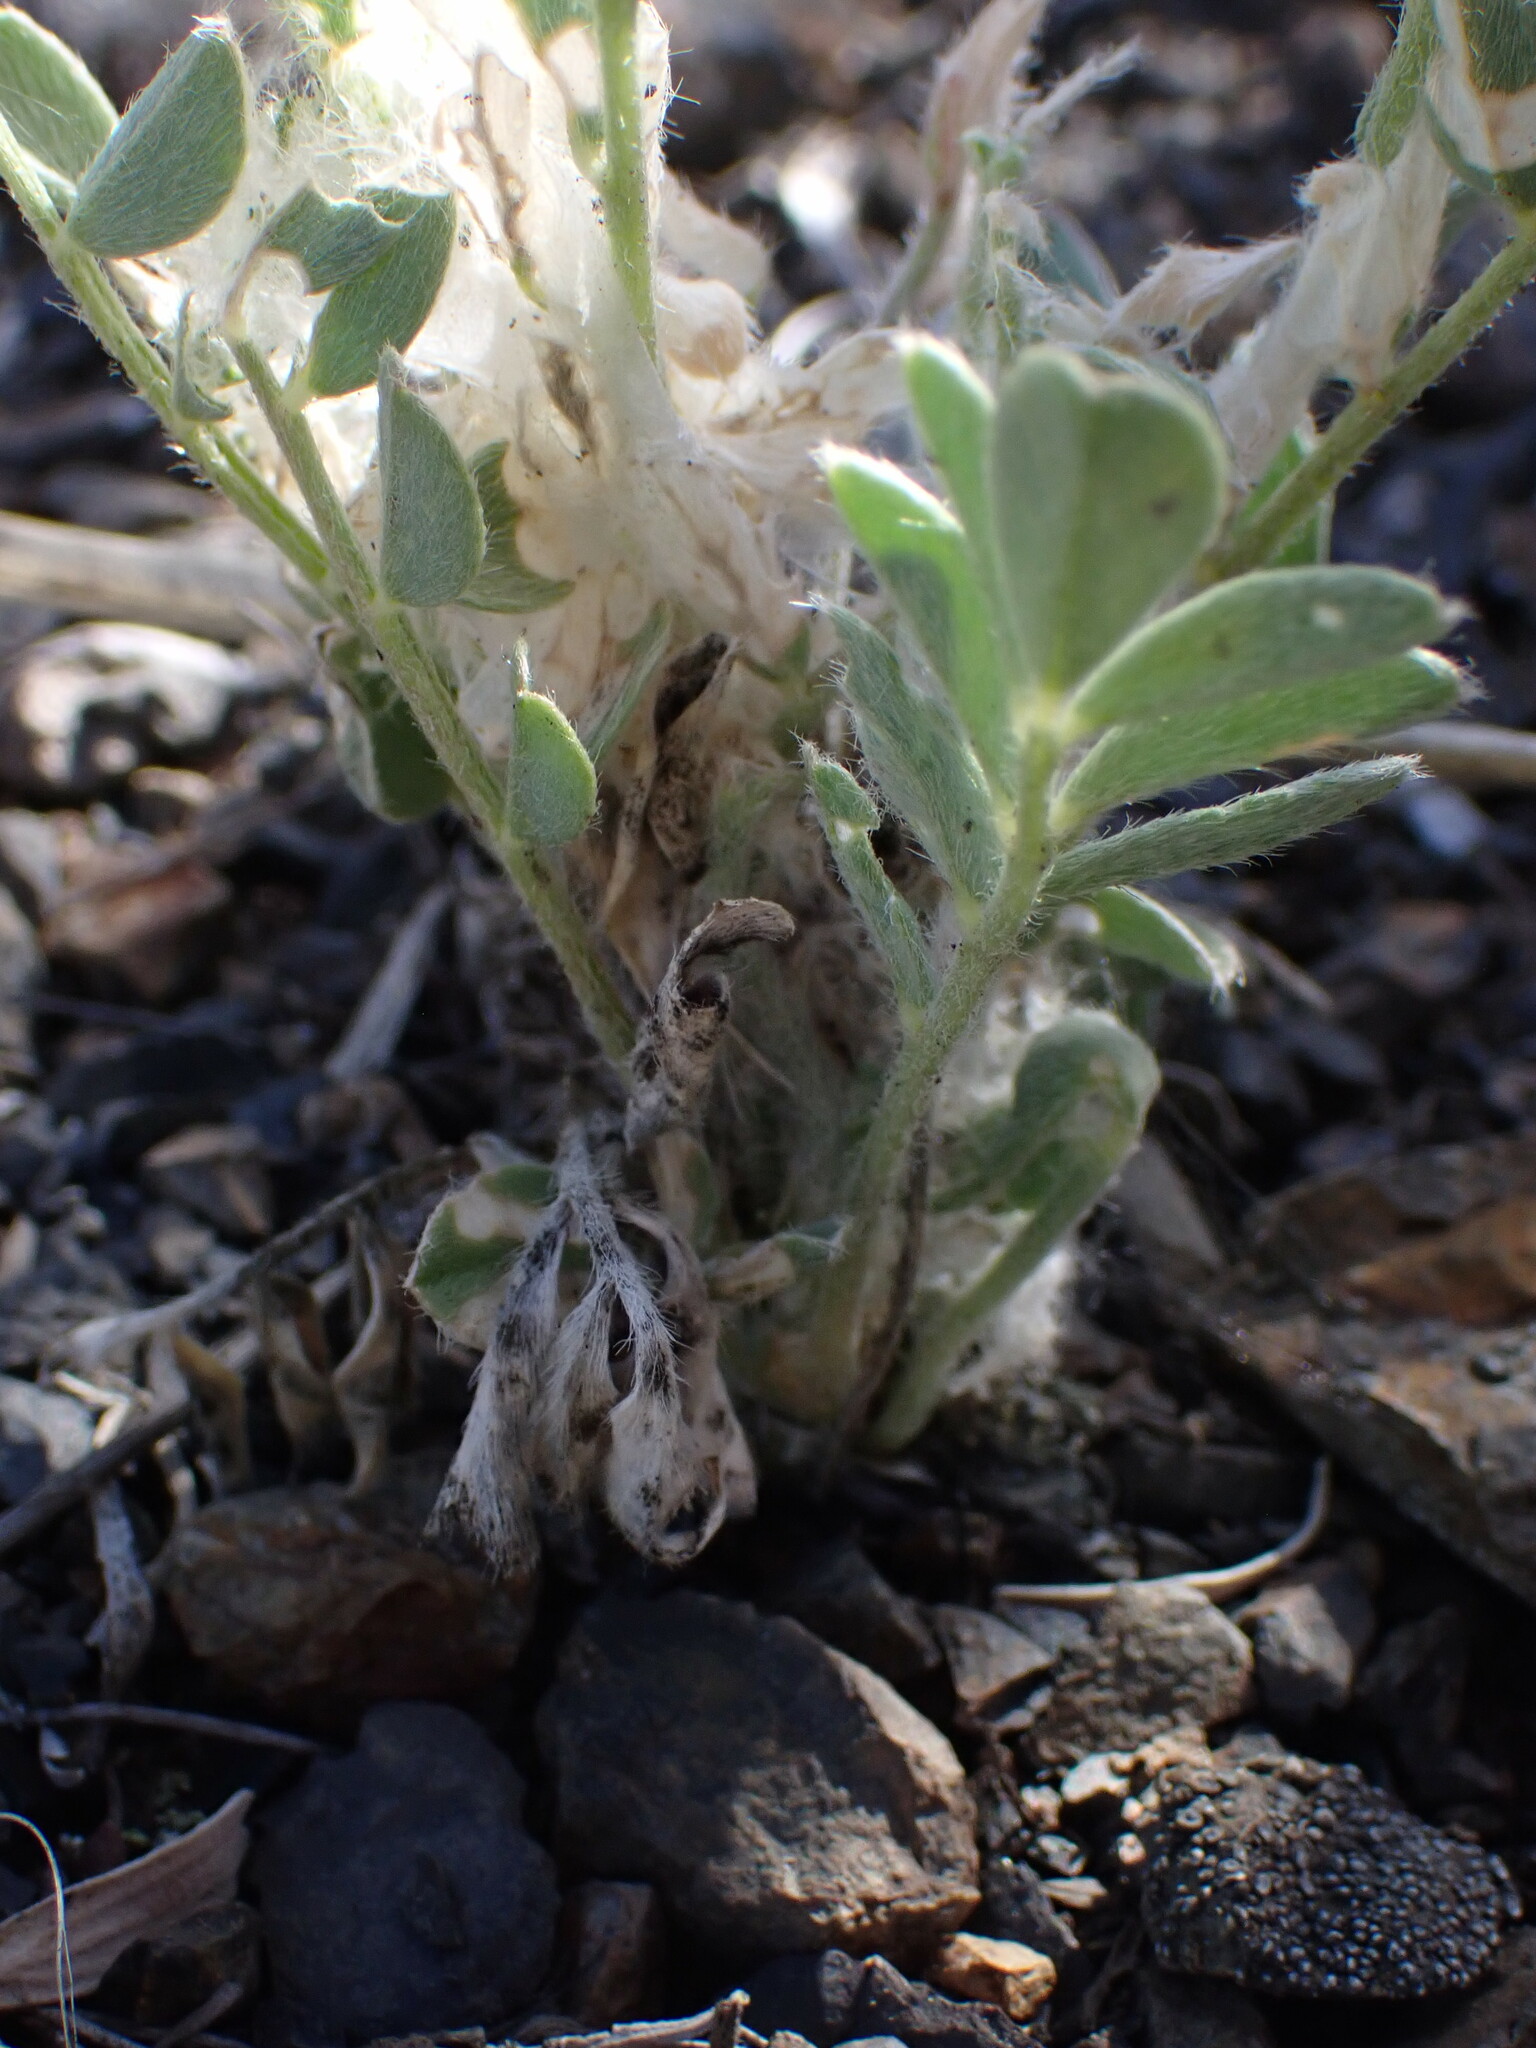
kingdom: Plantae
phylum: Tracheophyta
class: Magnoliopsida
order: Fabales
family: Fabaceae
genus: Astragalus
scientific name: Astragalus purshii
